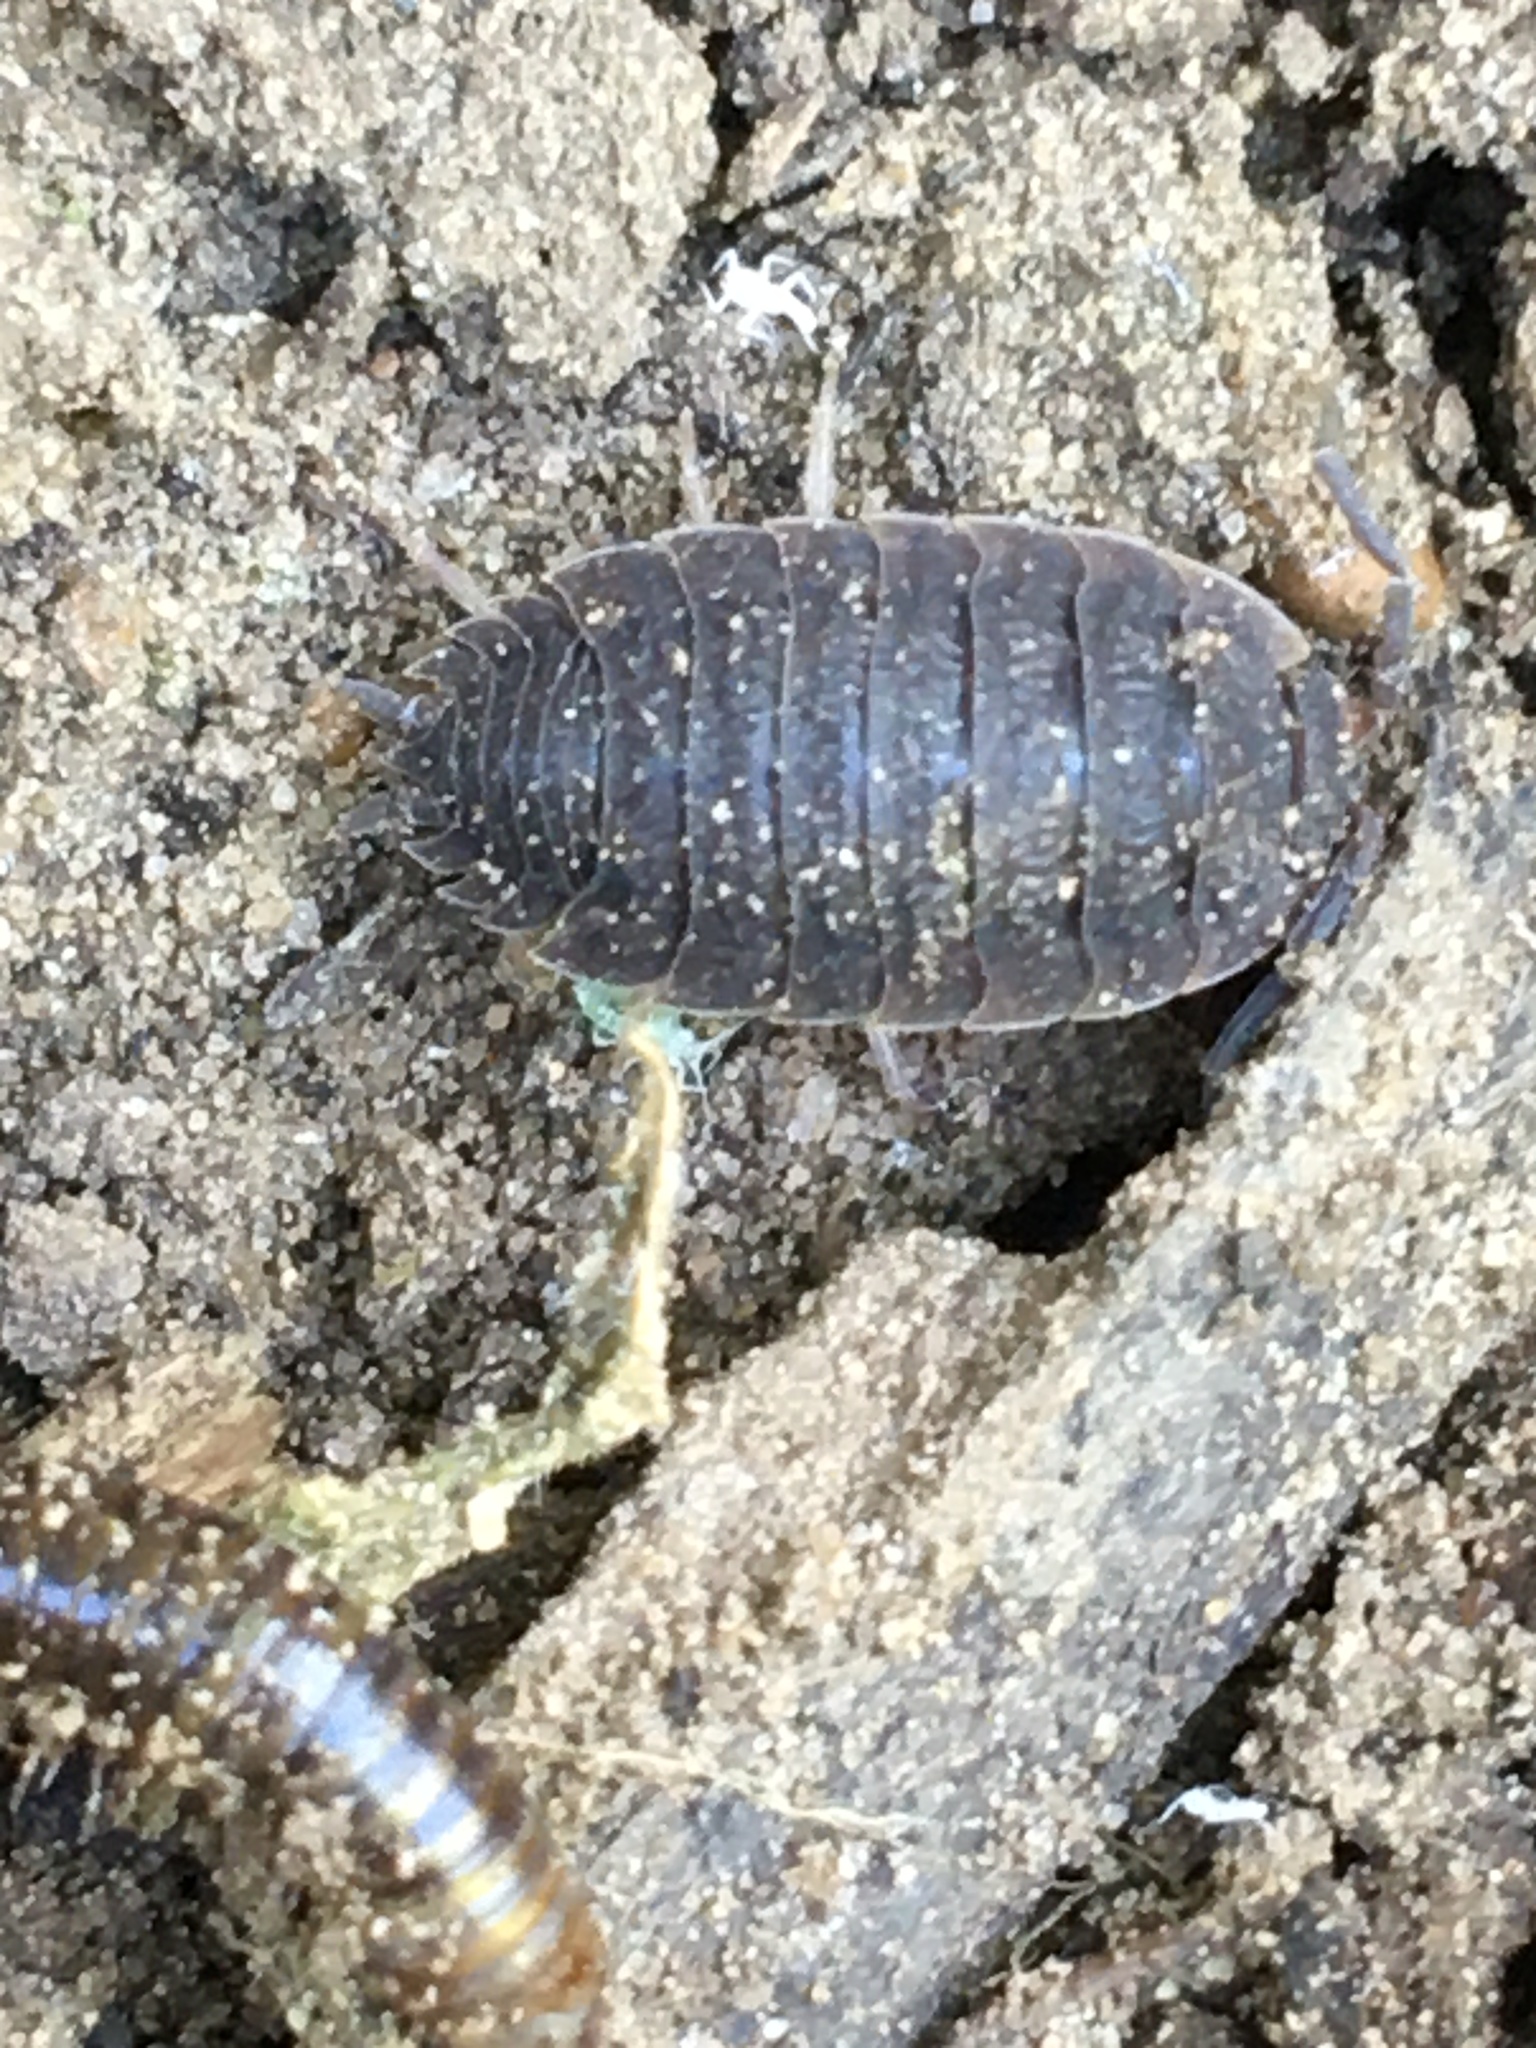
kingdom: Animalia
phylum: Arthropoda
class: Malacostraca
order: Isopoda
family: Porcellionidae
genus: Porcellio
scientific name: Porcellio scaber
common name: Common rough woodlouse
